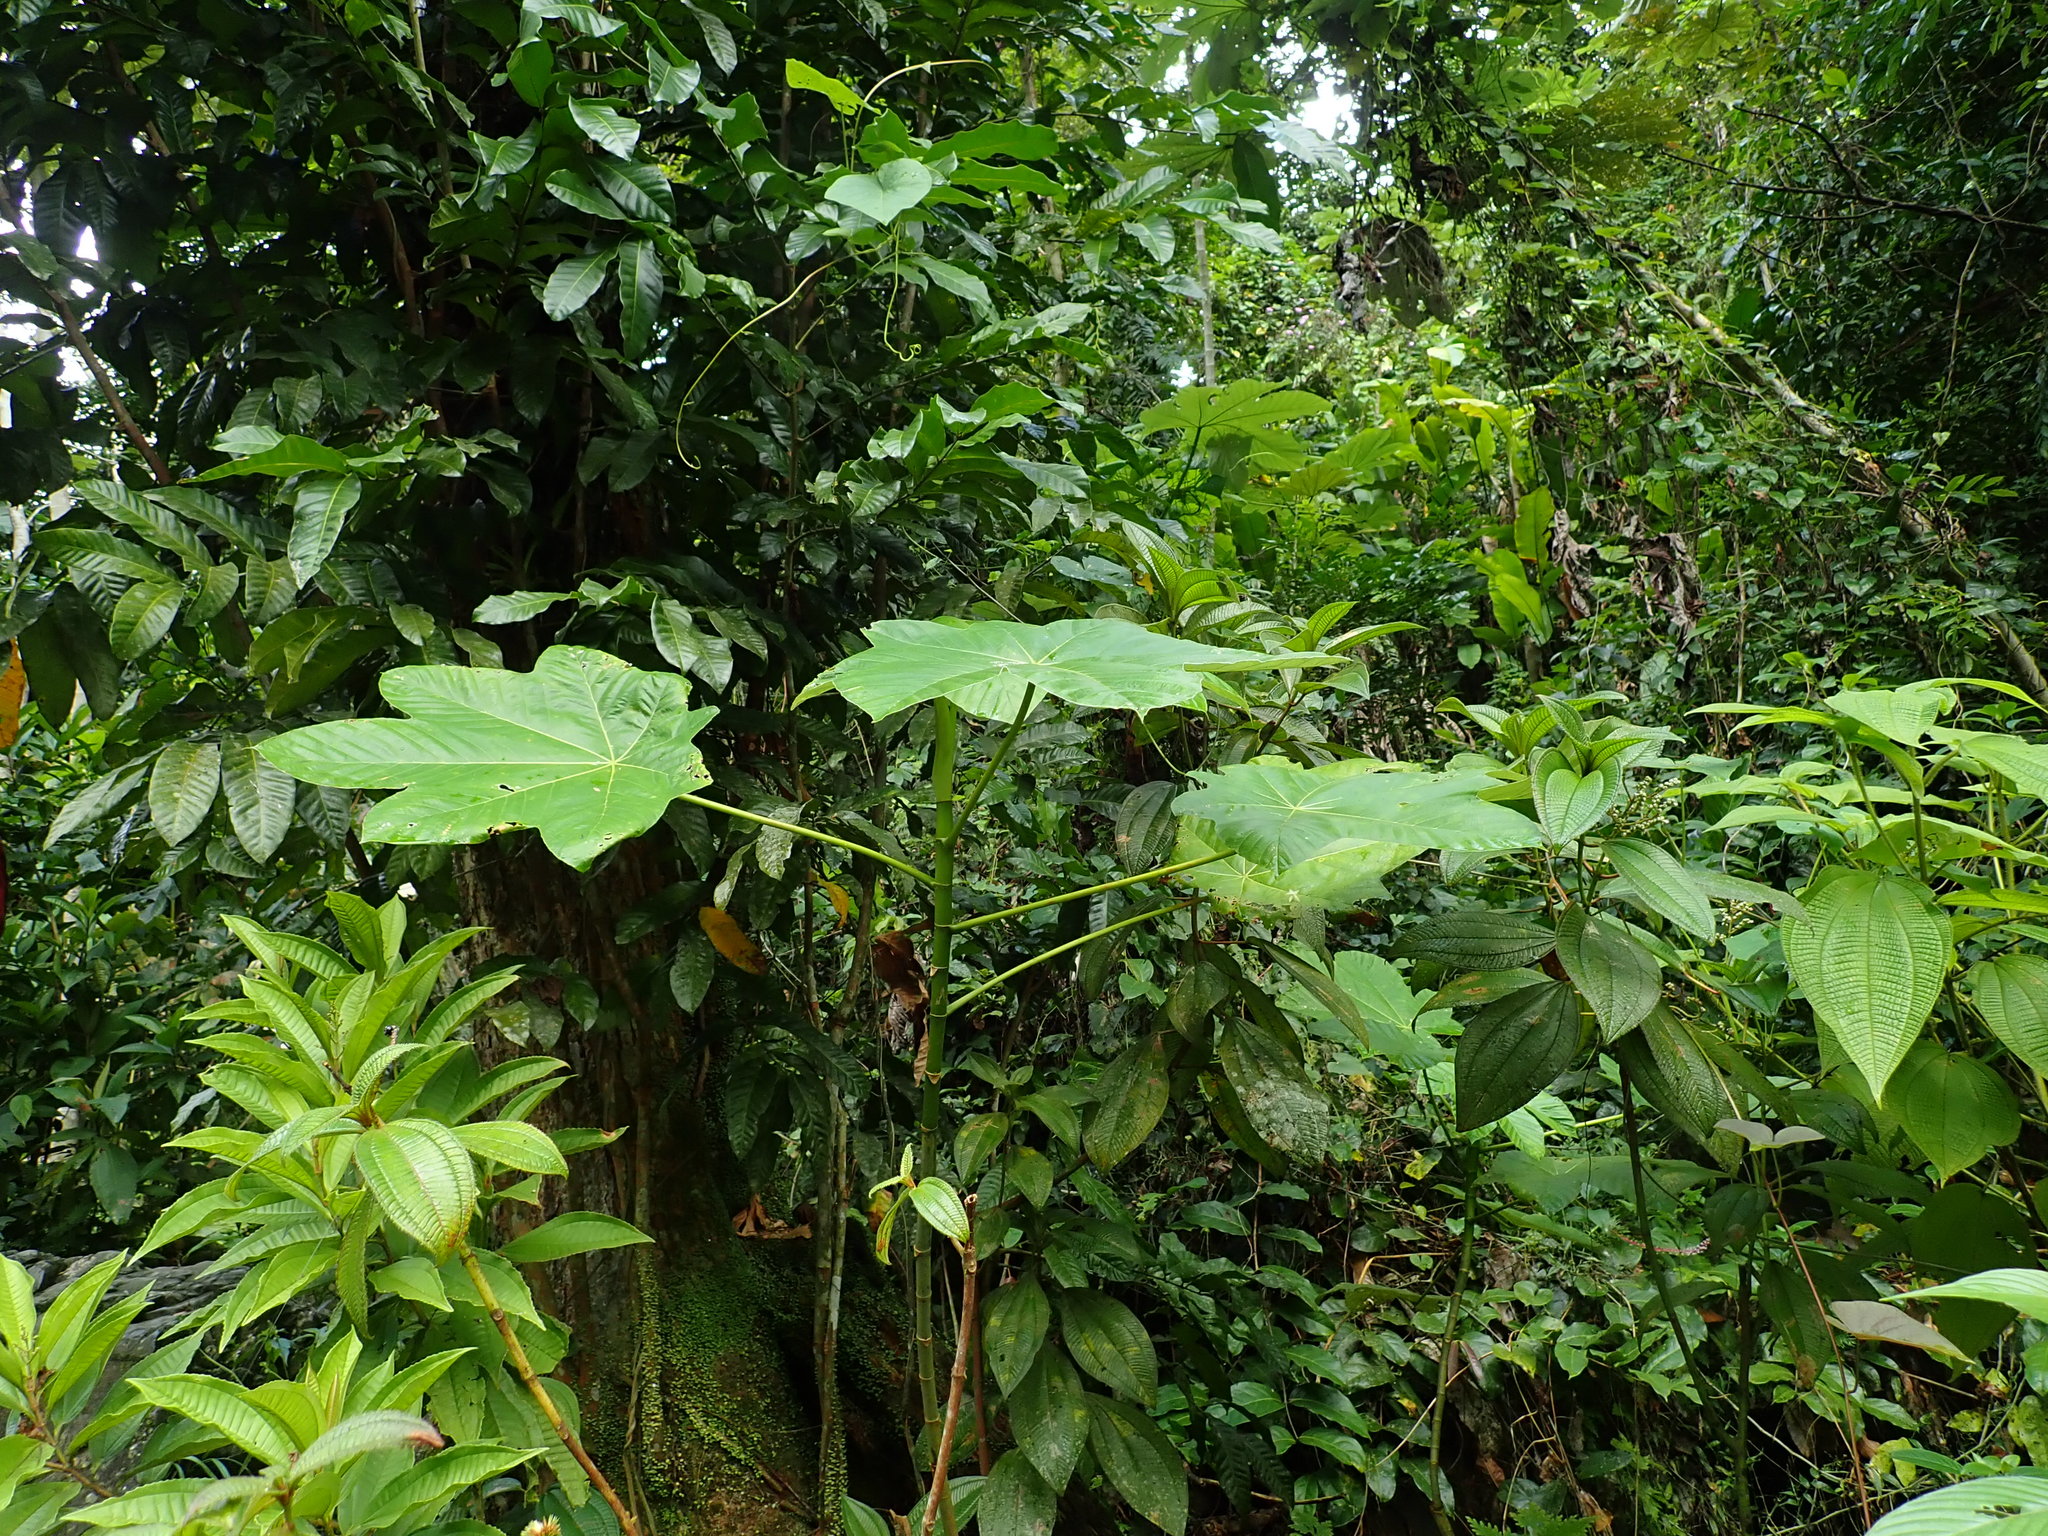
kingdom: Plantae
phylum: Tracheophyta
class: Magnoliopsida
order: Rosales
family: Urticaceae
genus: Cecropia
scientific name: Cecropia schreberiana
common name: Trumpet tree
